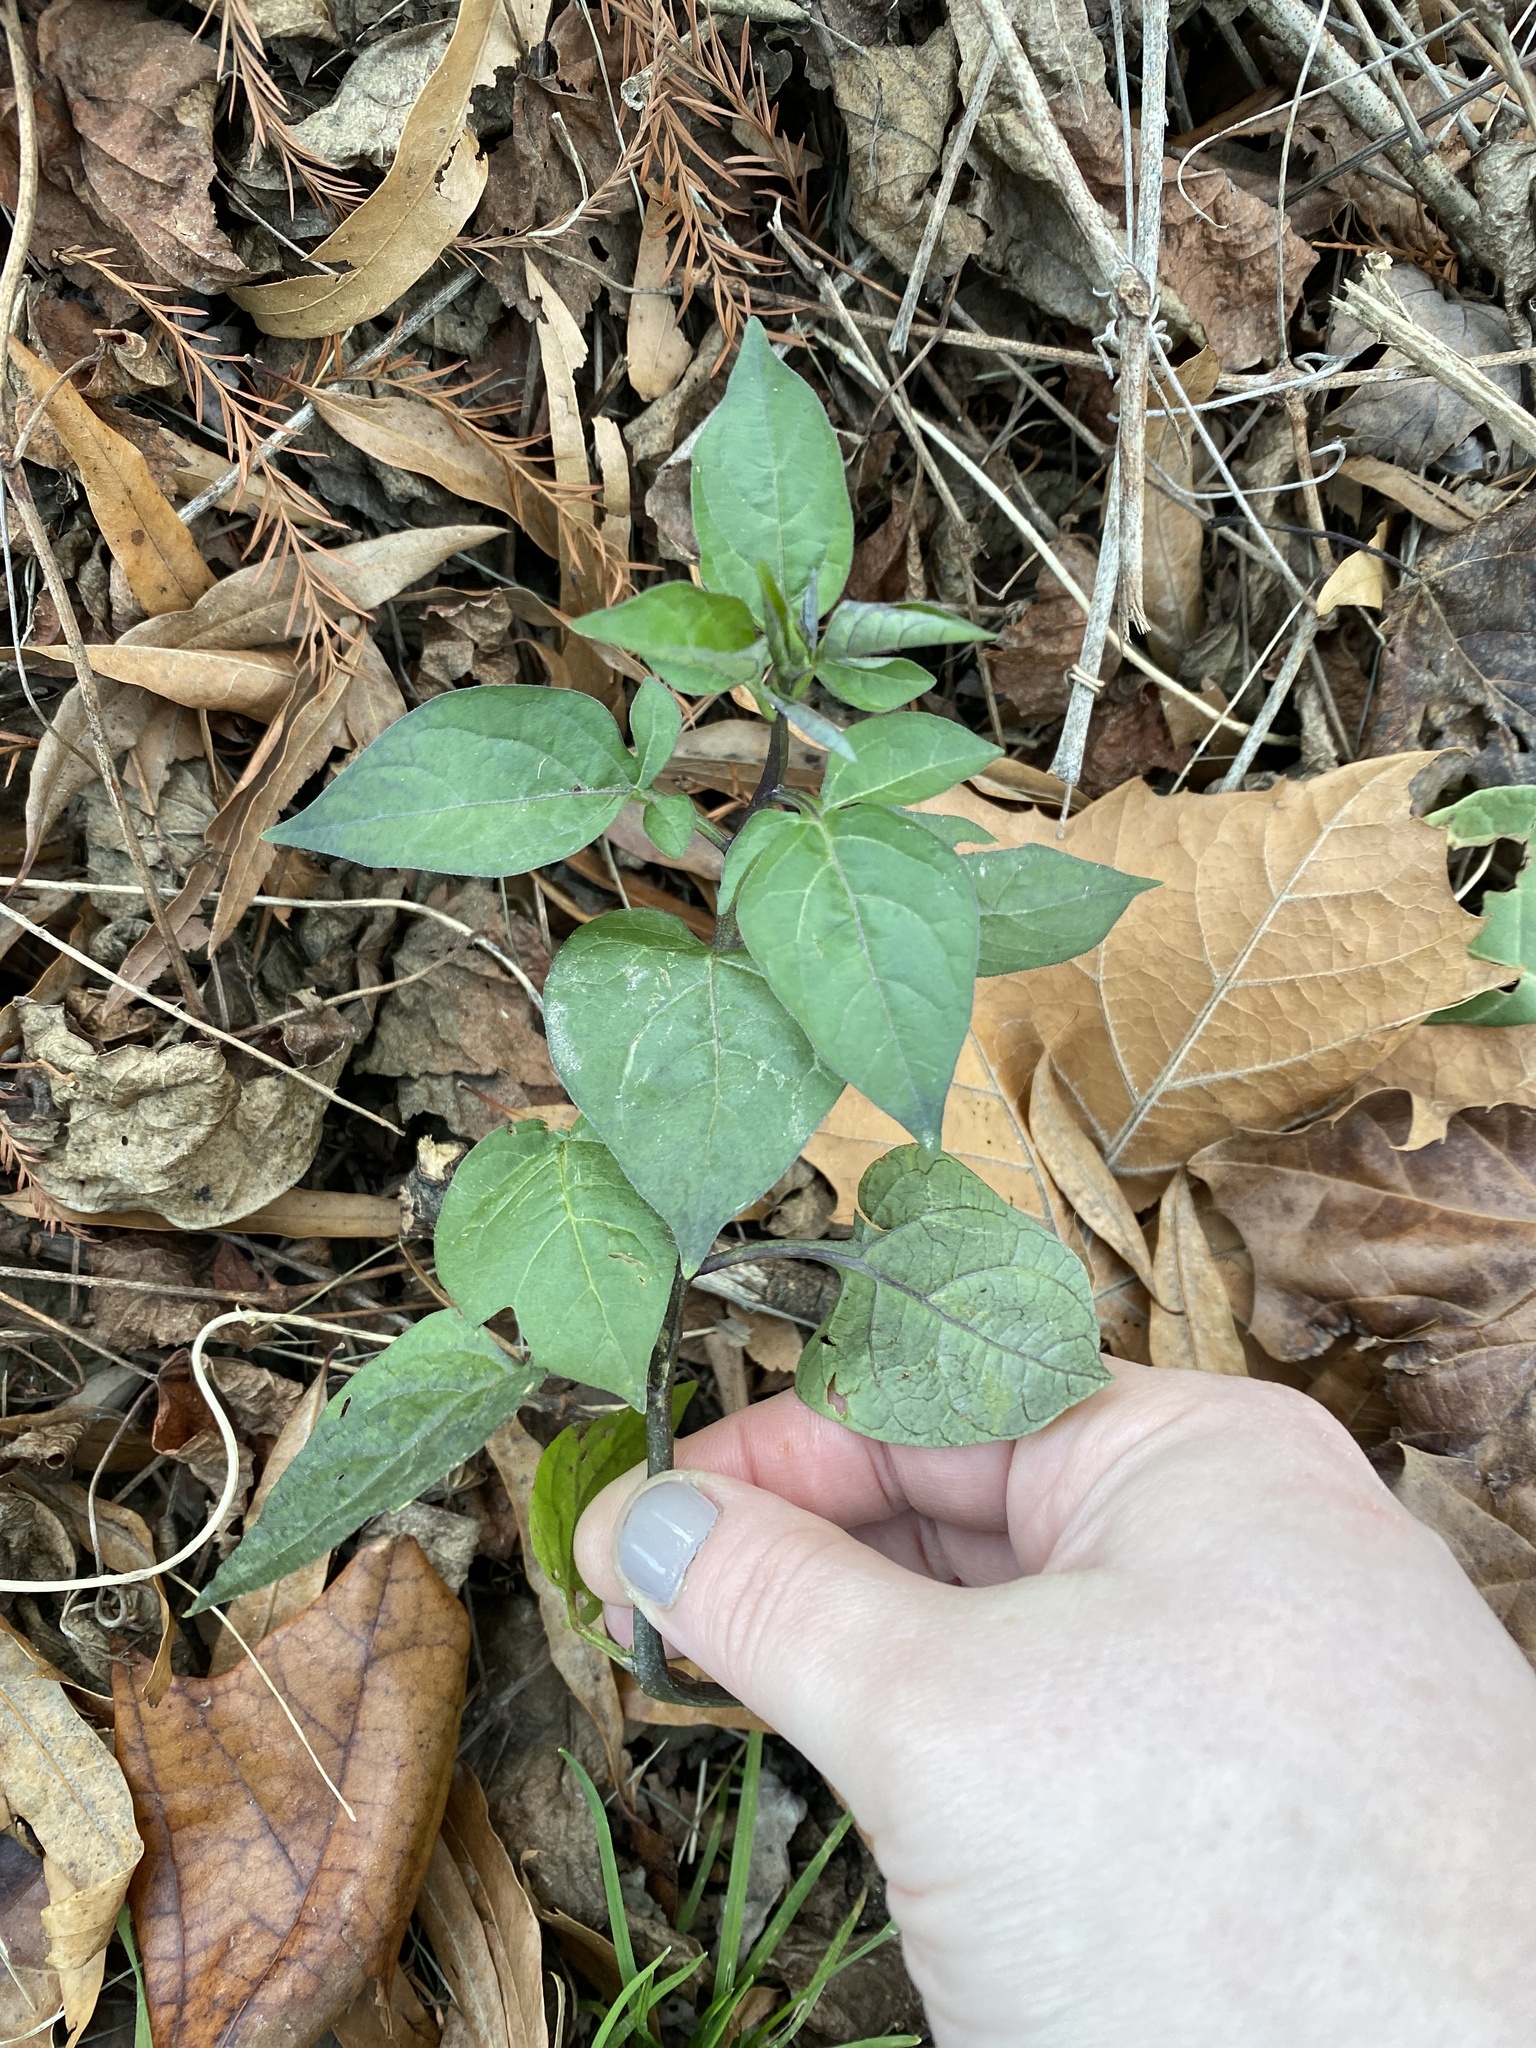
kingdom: Plantae
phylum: Tracheophyta
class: Magnoliopsida
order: Solanales
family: Solanaceae
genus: Solanum
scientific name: Solanum dulcamara
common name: Climbing nightshade
